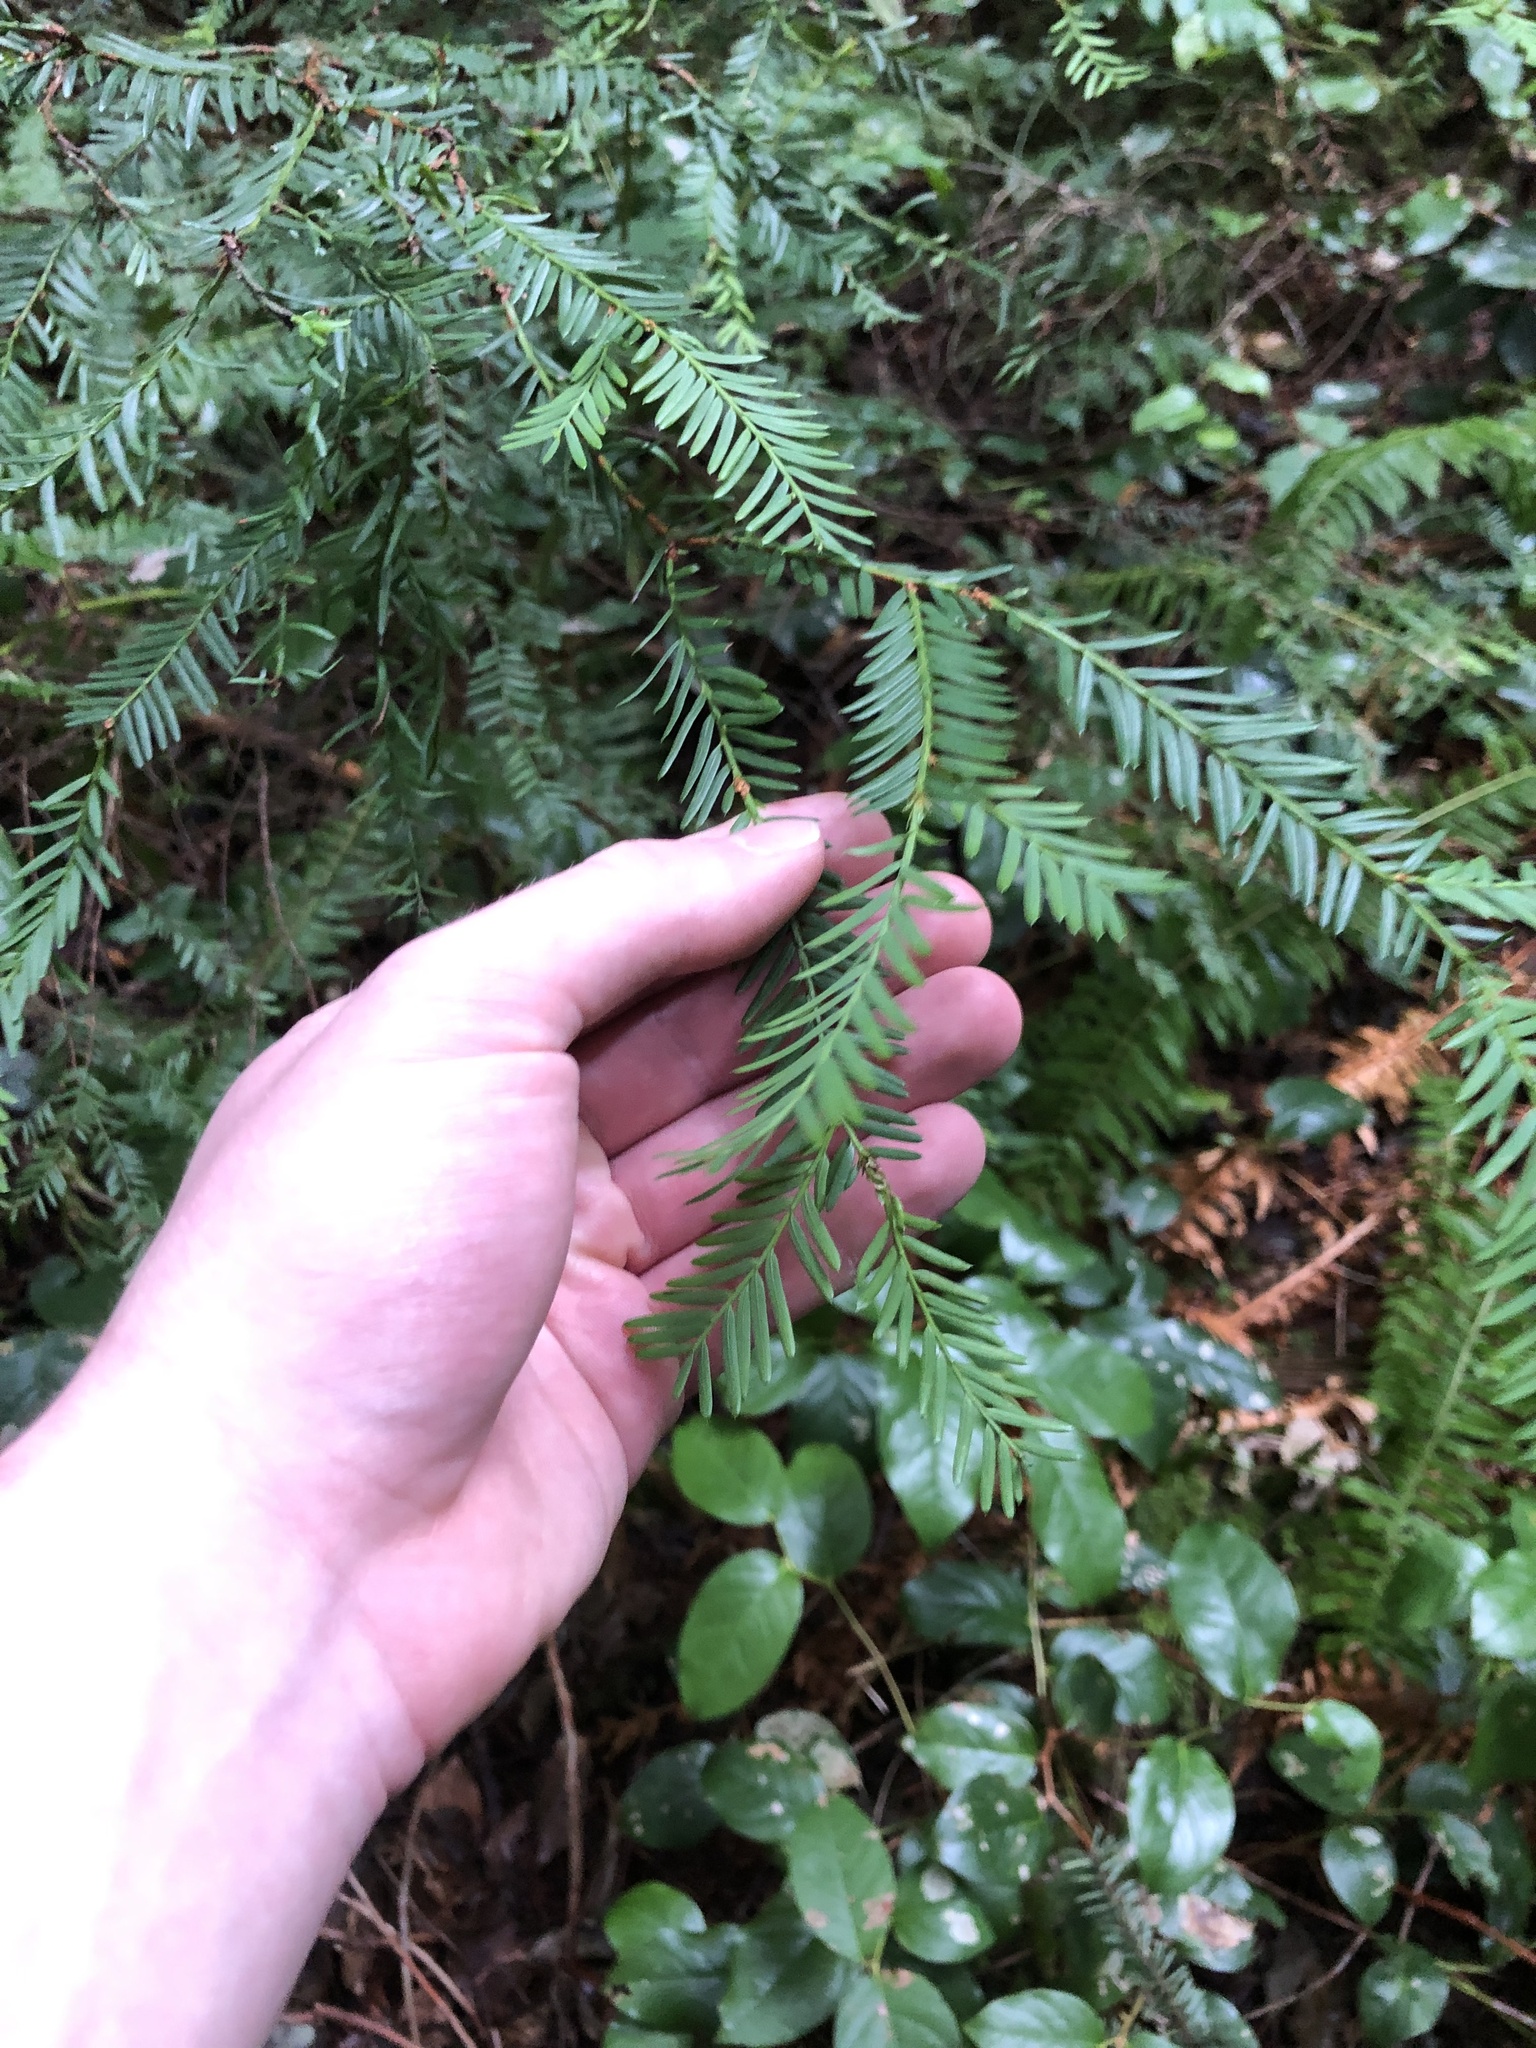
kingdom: Plantae
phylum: Tracheophyta
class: Pinopsida
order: Pinales
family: Taxaceae
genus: Taxus
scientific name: Taxus brevifolia
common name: Pacific yew
